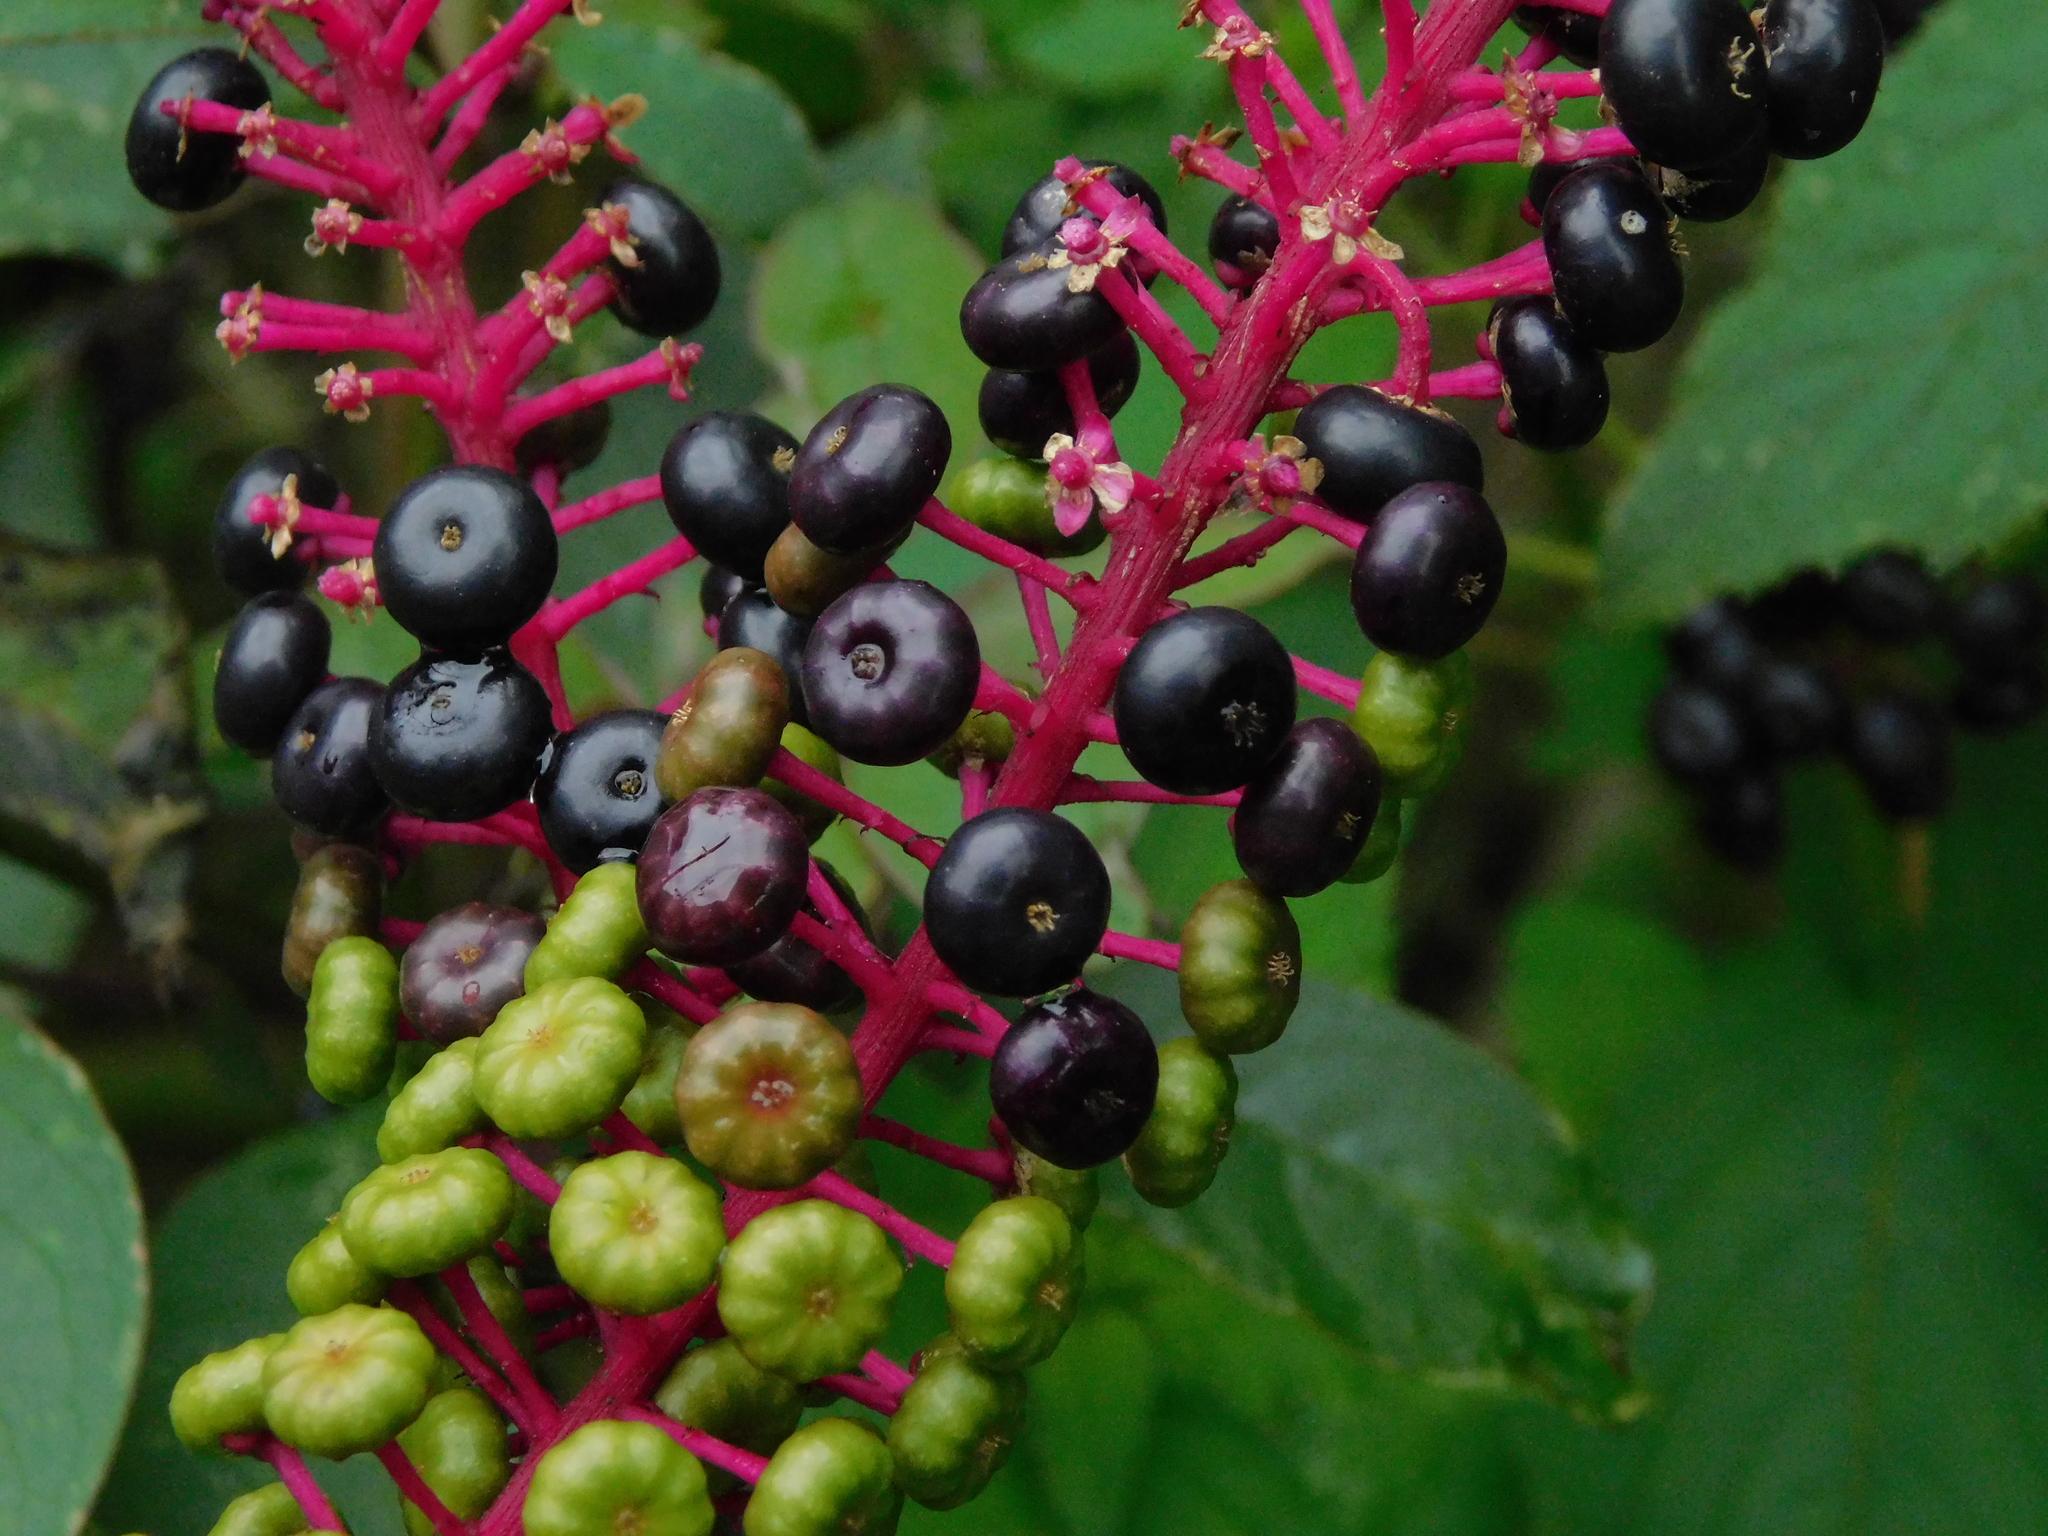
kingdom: Plantae
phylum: Tracheophyta
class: Magnoliopsida
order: Caryophyllales
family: Phytolaccaceae
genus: Phytolacca
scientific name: Phytolacca rivinoides
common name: Venezuelan pokeweed
